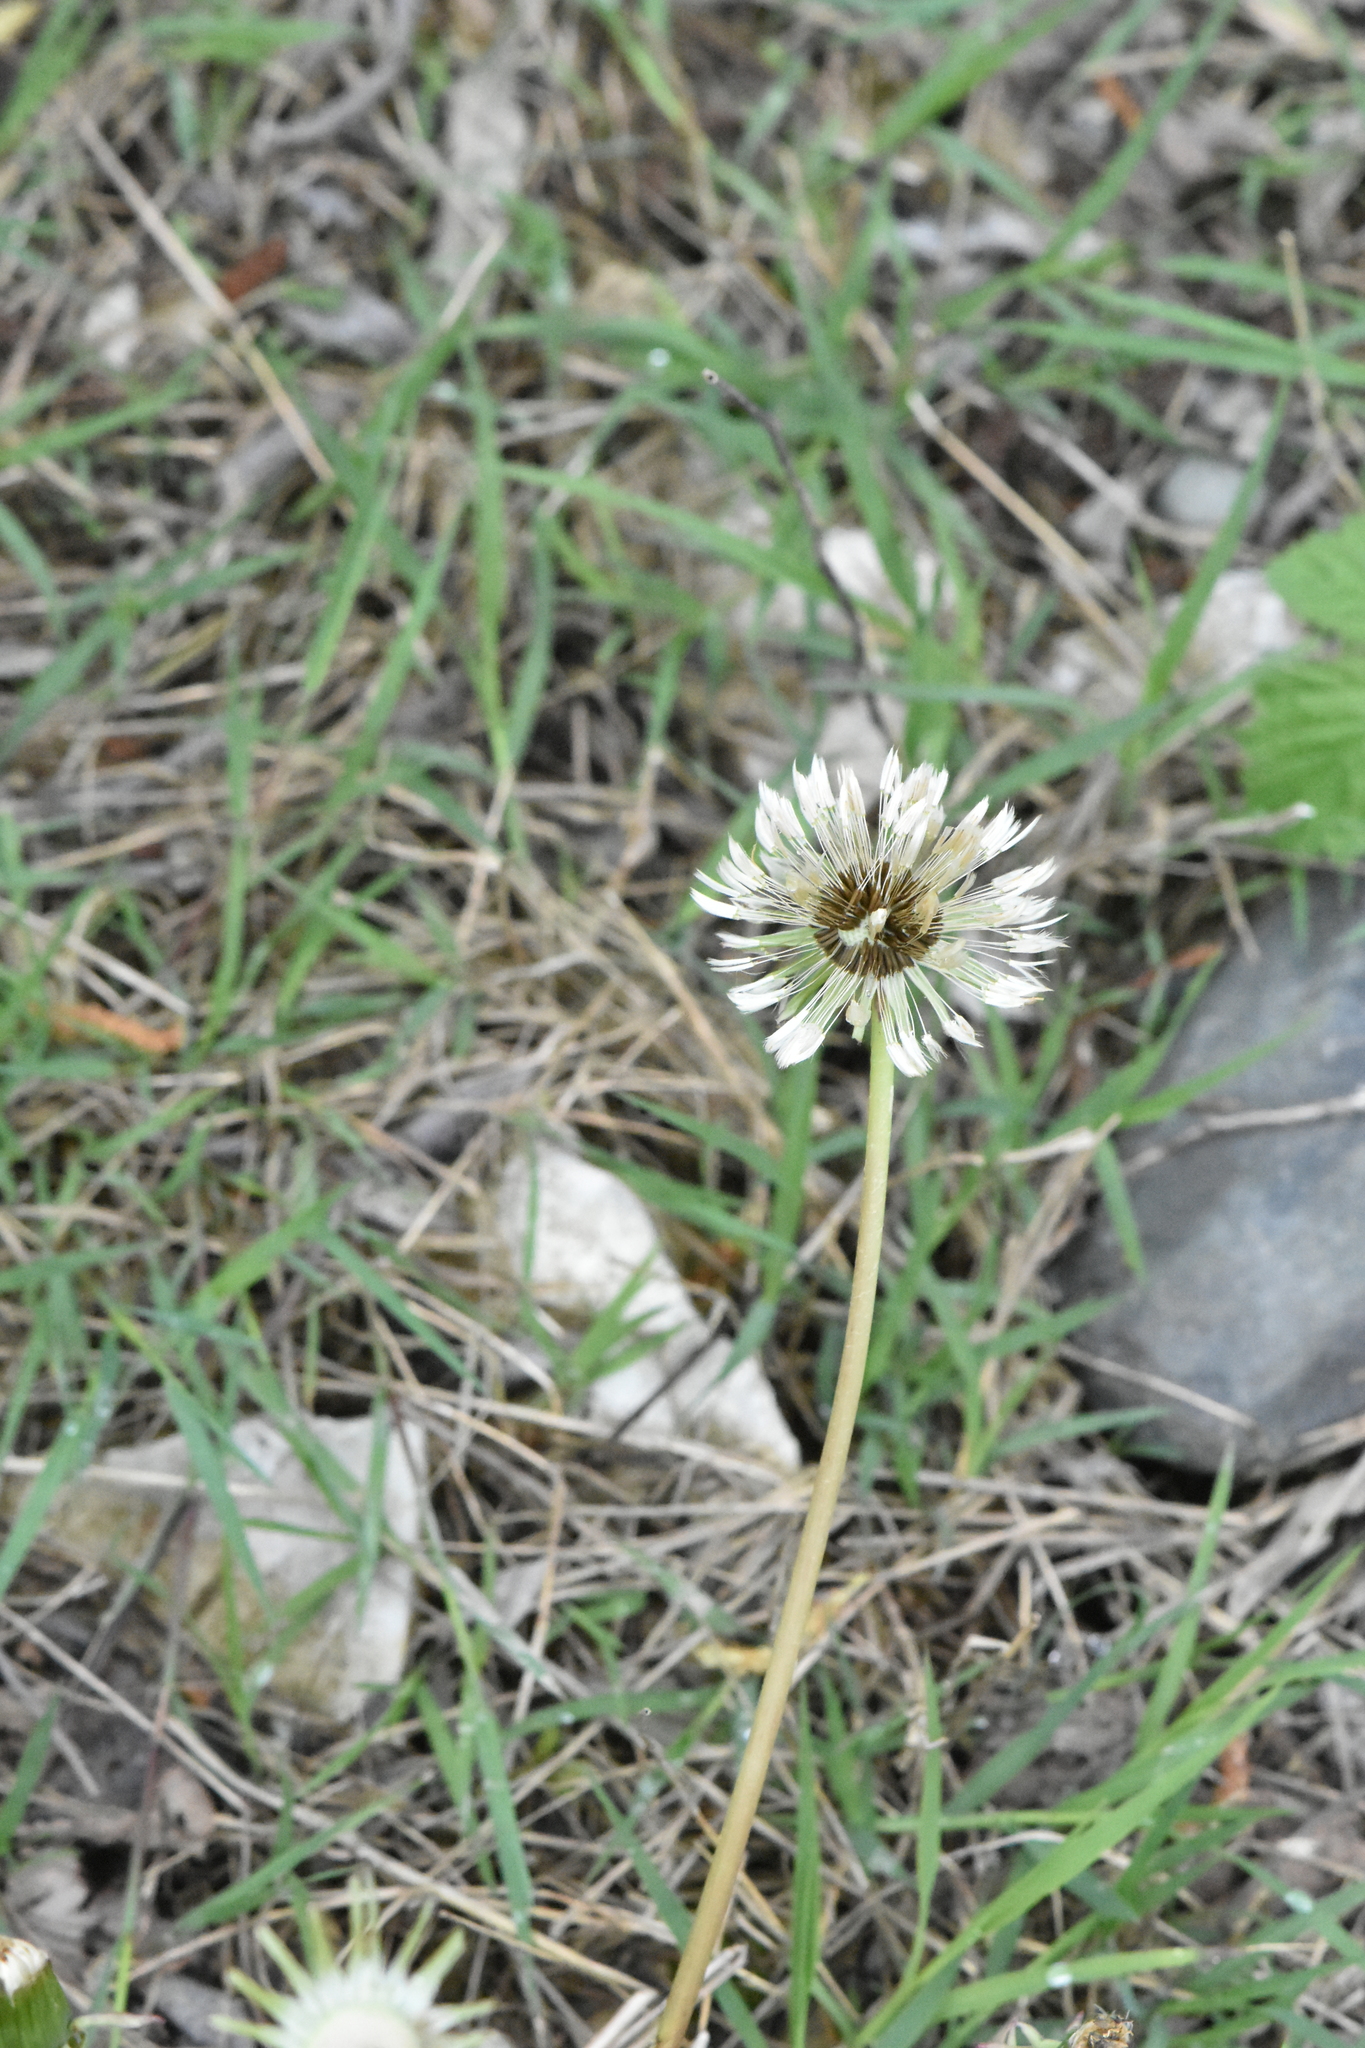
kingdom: Plantae
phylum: Tracheophyta
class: Magnoliopsida
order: Asterales
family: Asteraceae
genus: Taraxacum
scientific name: Taraxacum officinale
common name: Common dandelion
